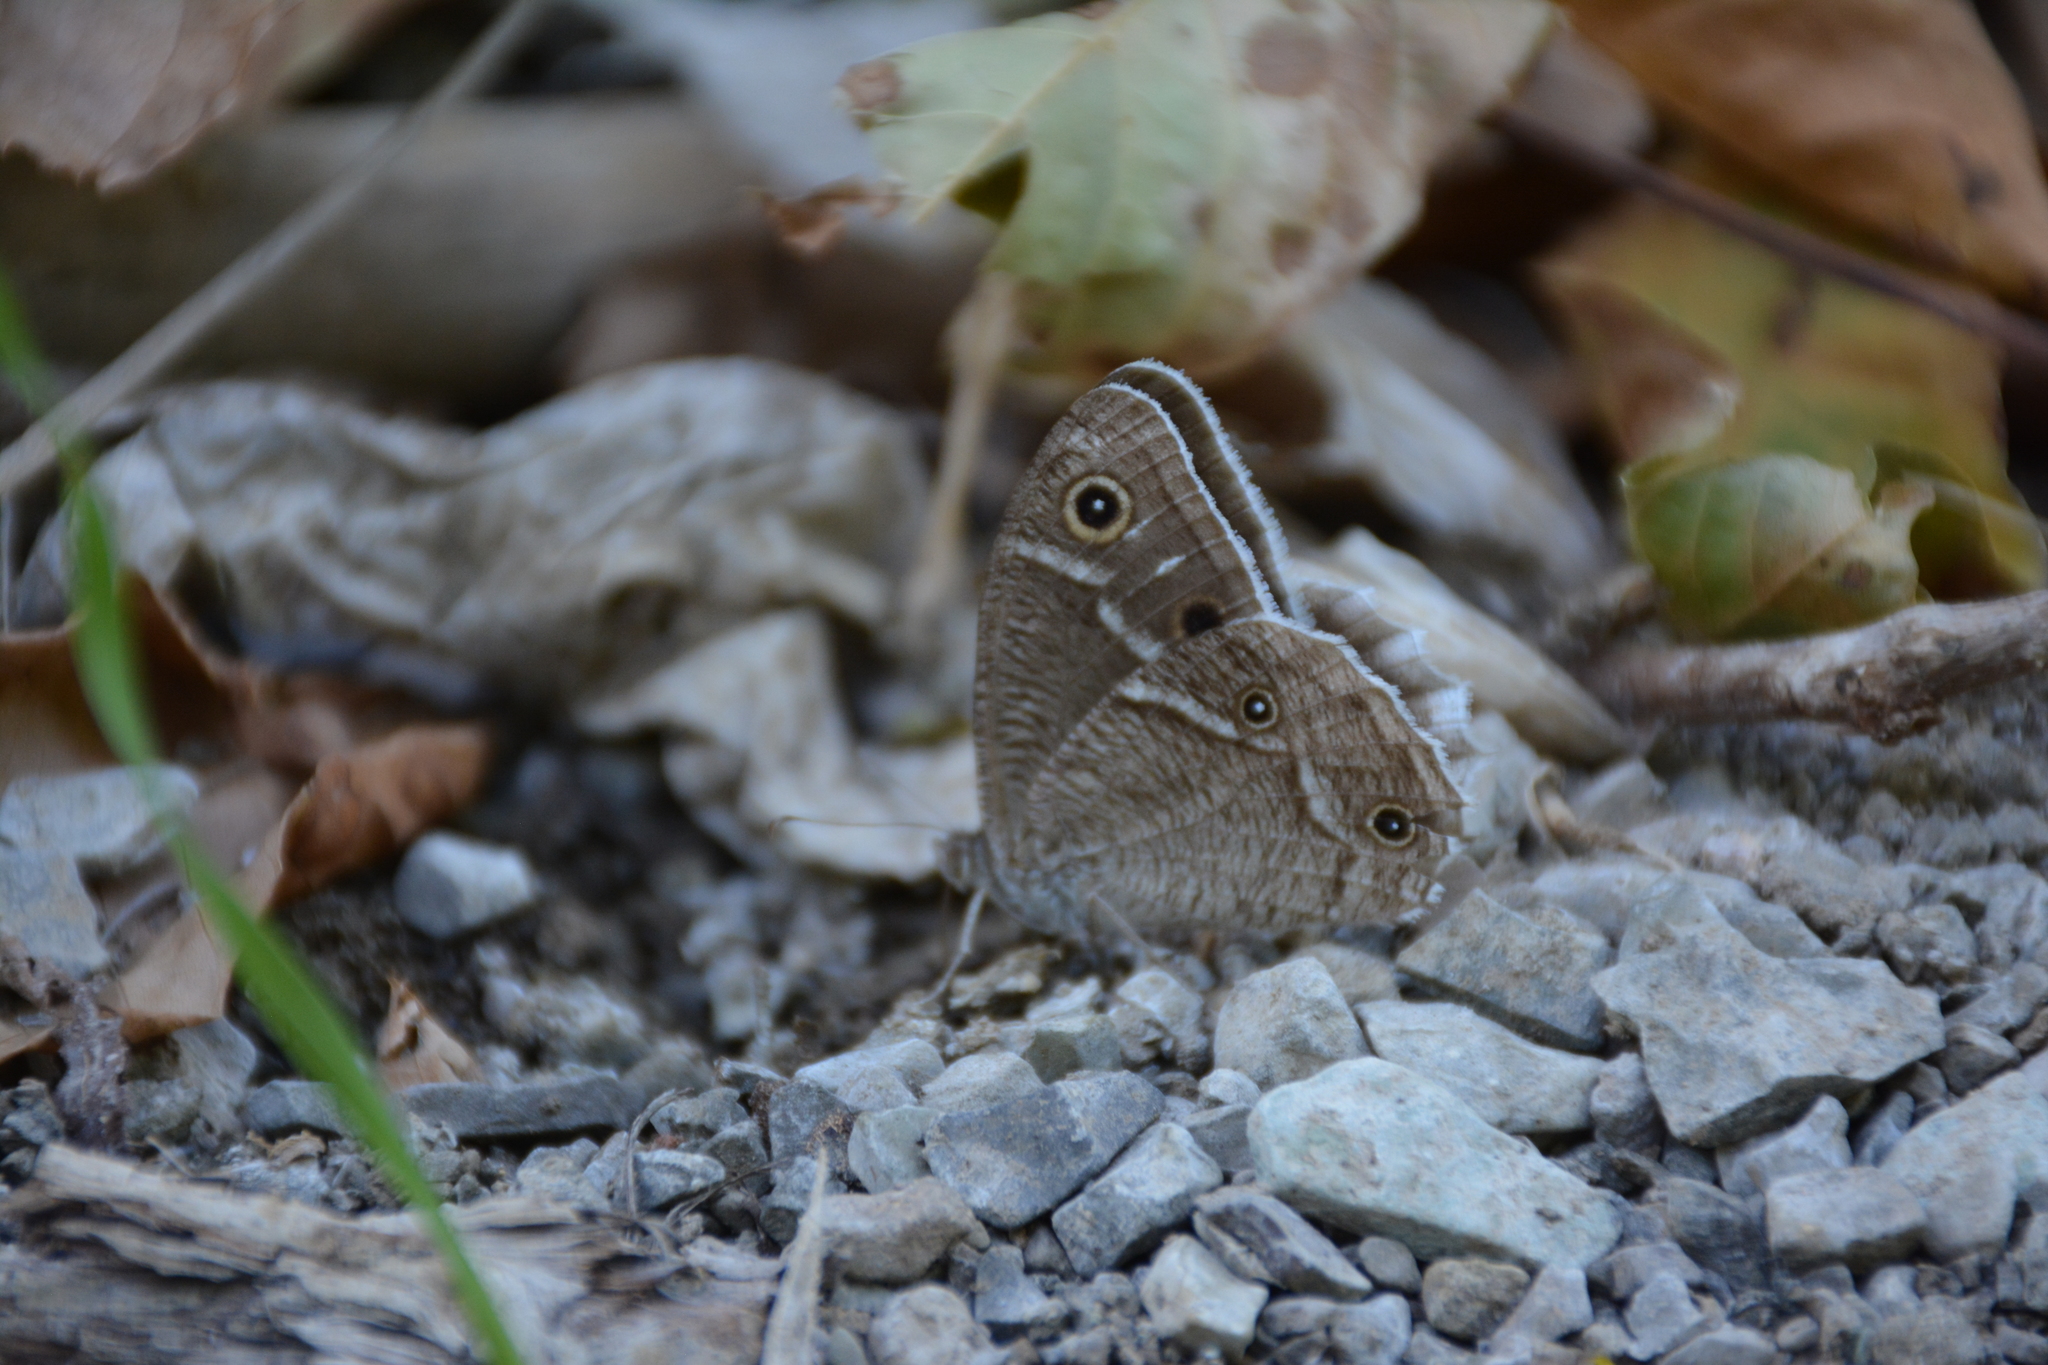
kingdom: Animalia
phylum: Arthropoda
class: Insecta
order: Lepidoptera
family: Nymphalidae
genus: Hipparchia
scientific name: Hipparchia parisatis
